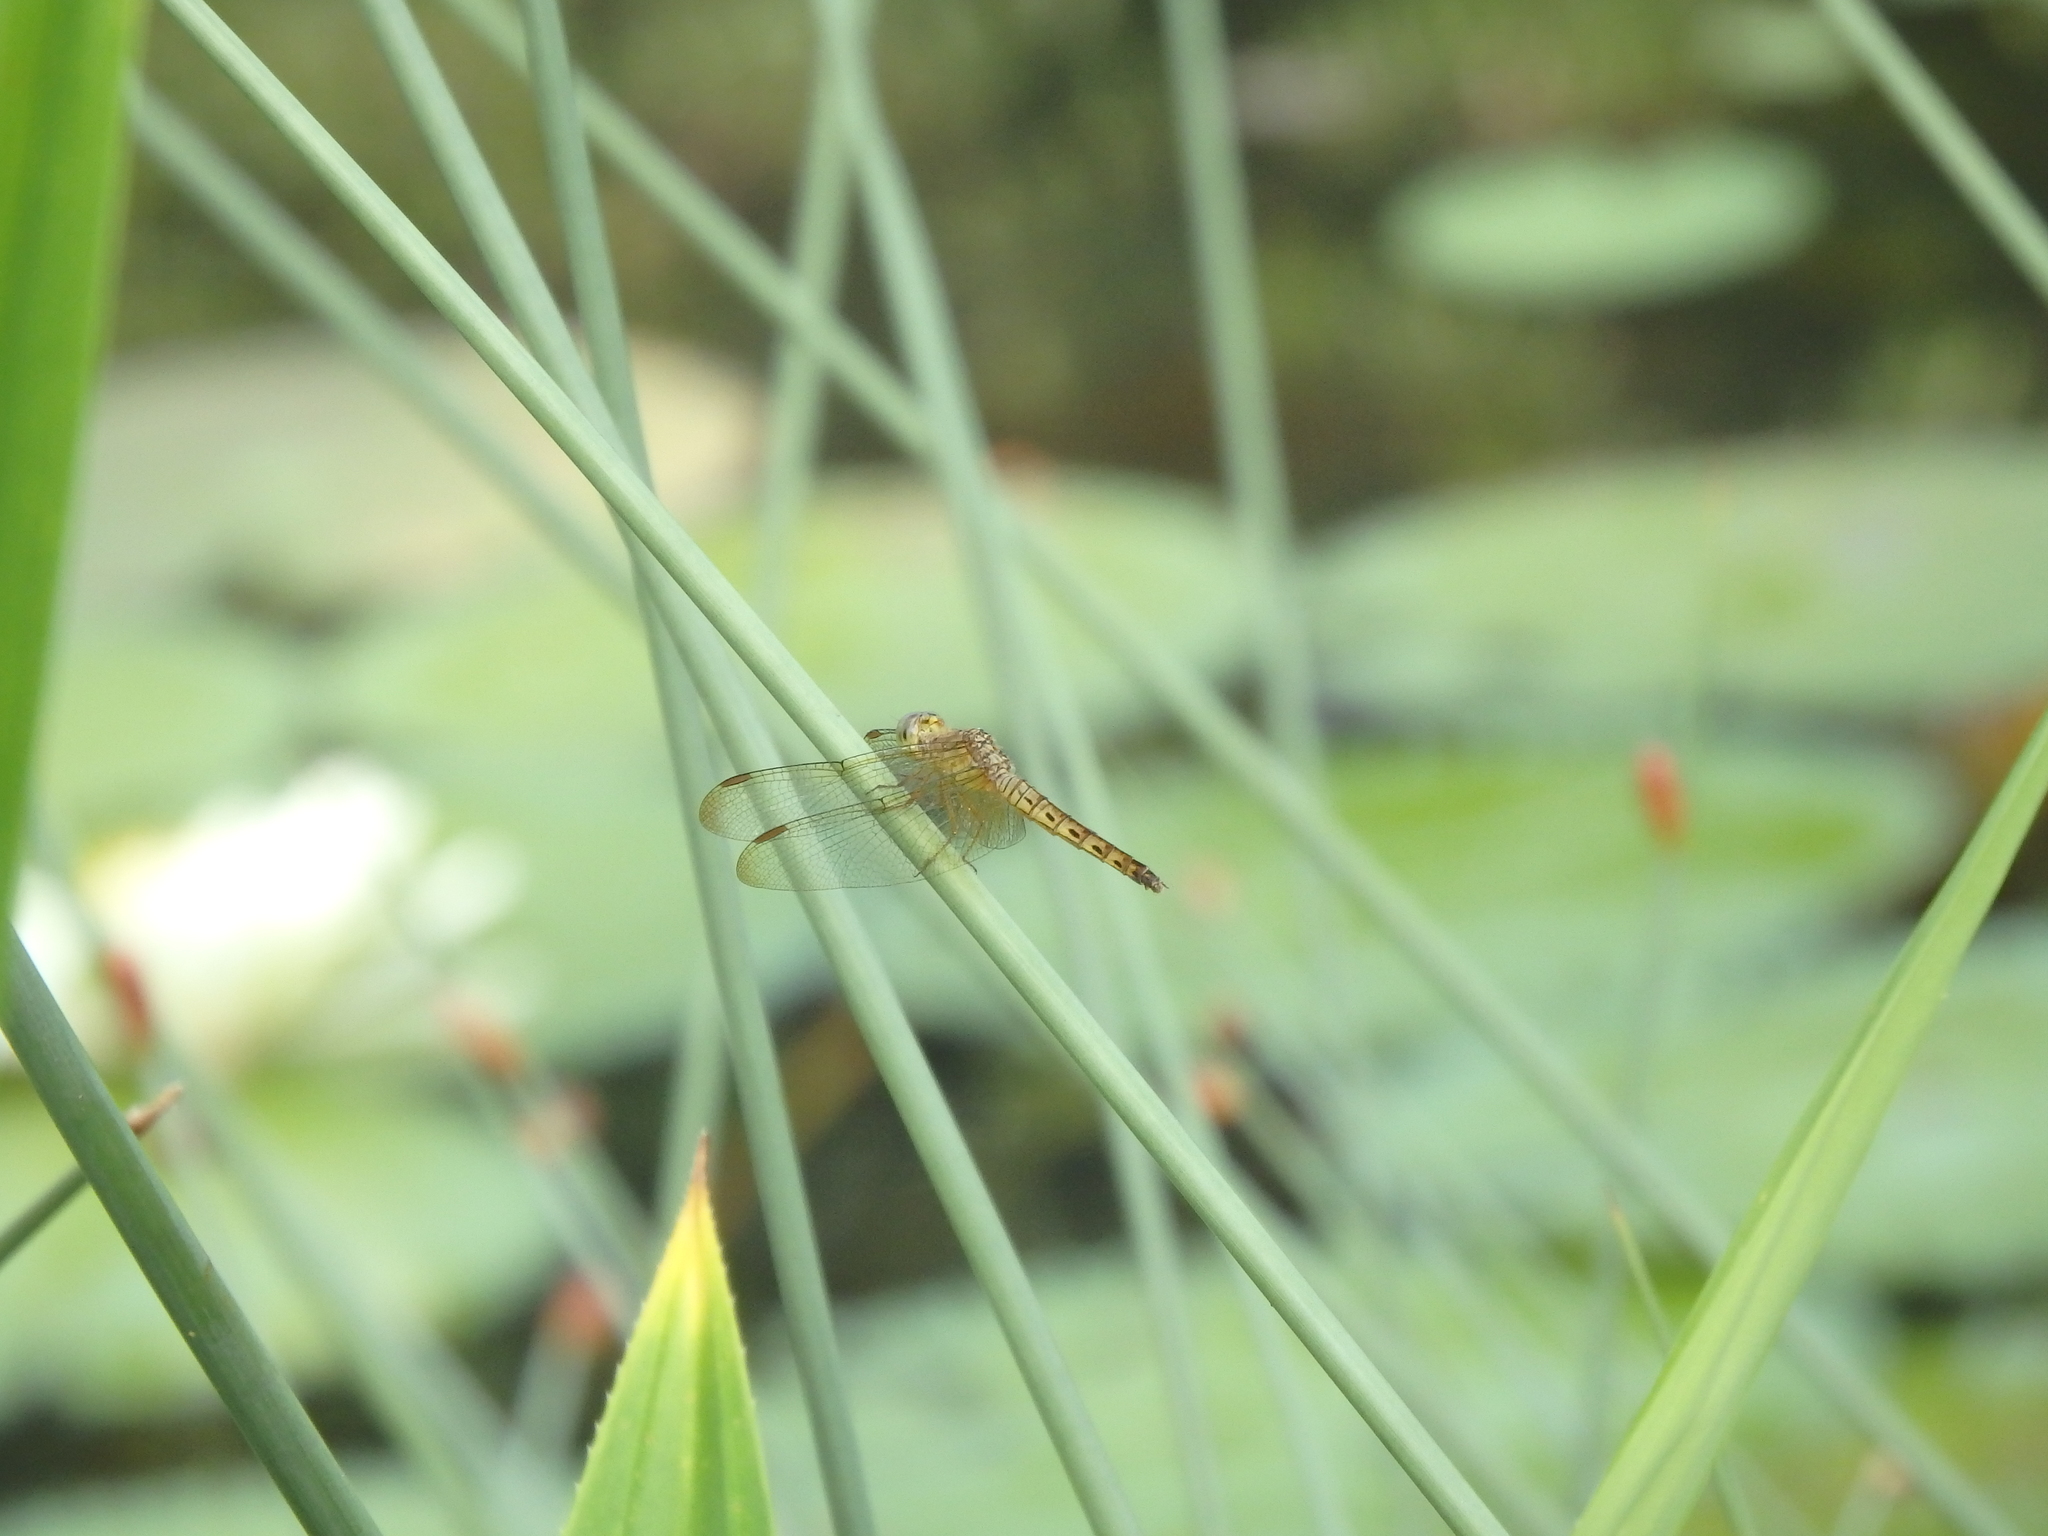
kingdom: Animalia
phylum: Arthropoda
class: Insecta
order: Odonata
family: Libellulidae
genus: Neurothemis
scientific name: Neurothemis fluctuans
